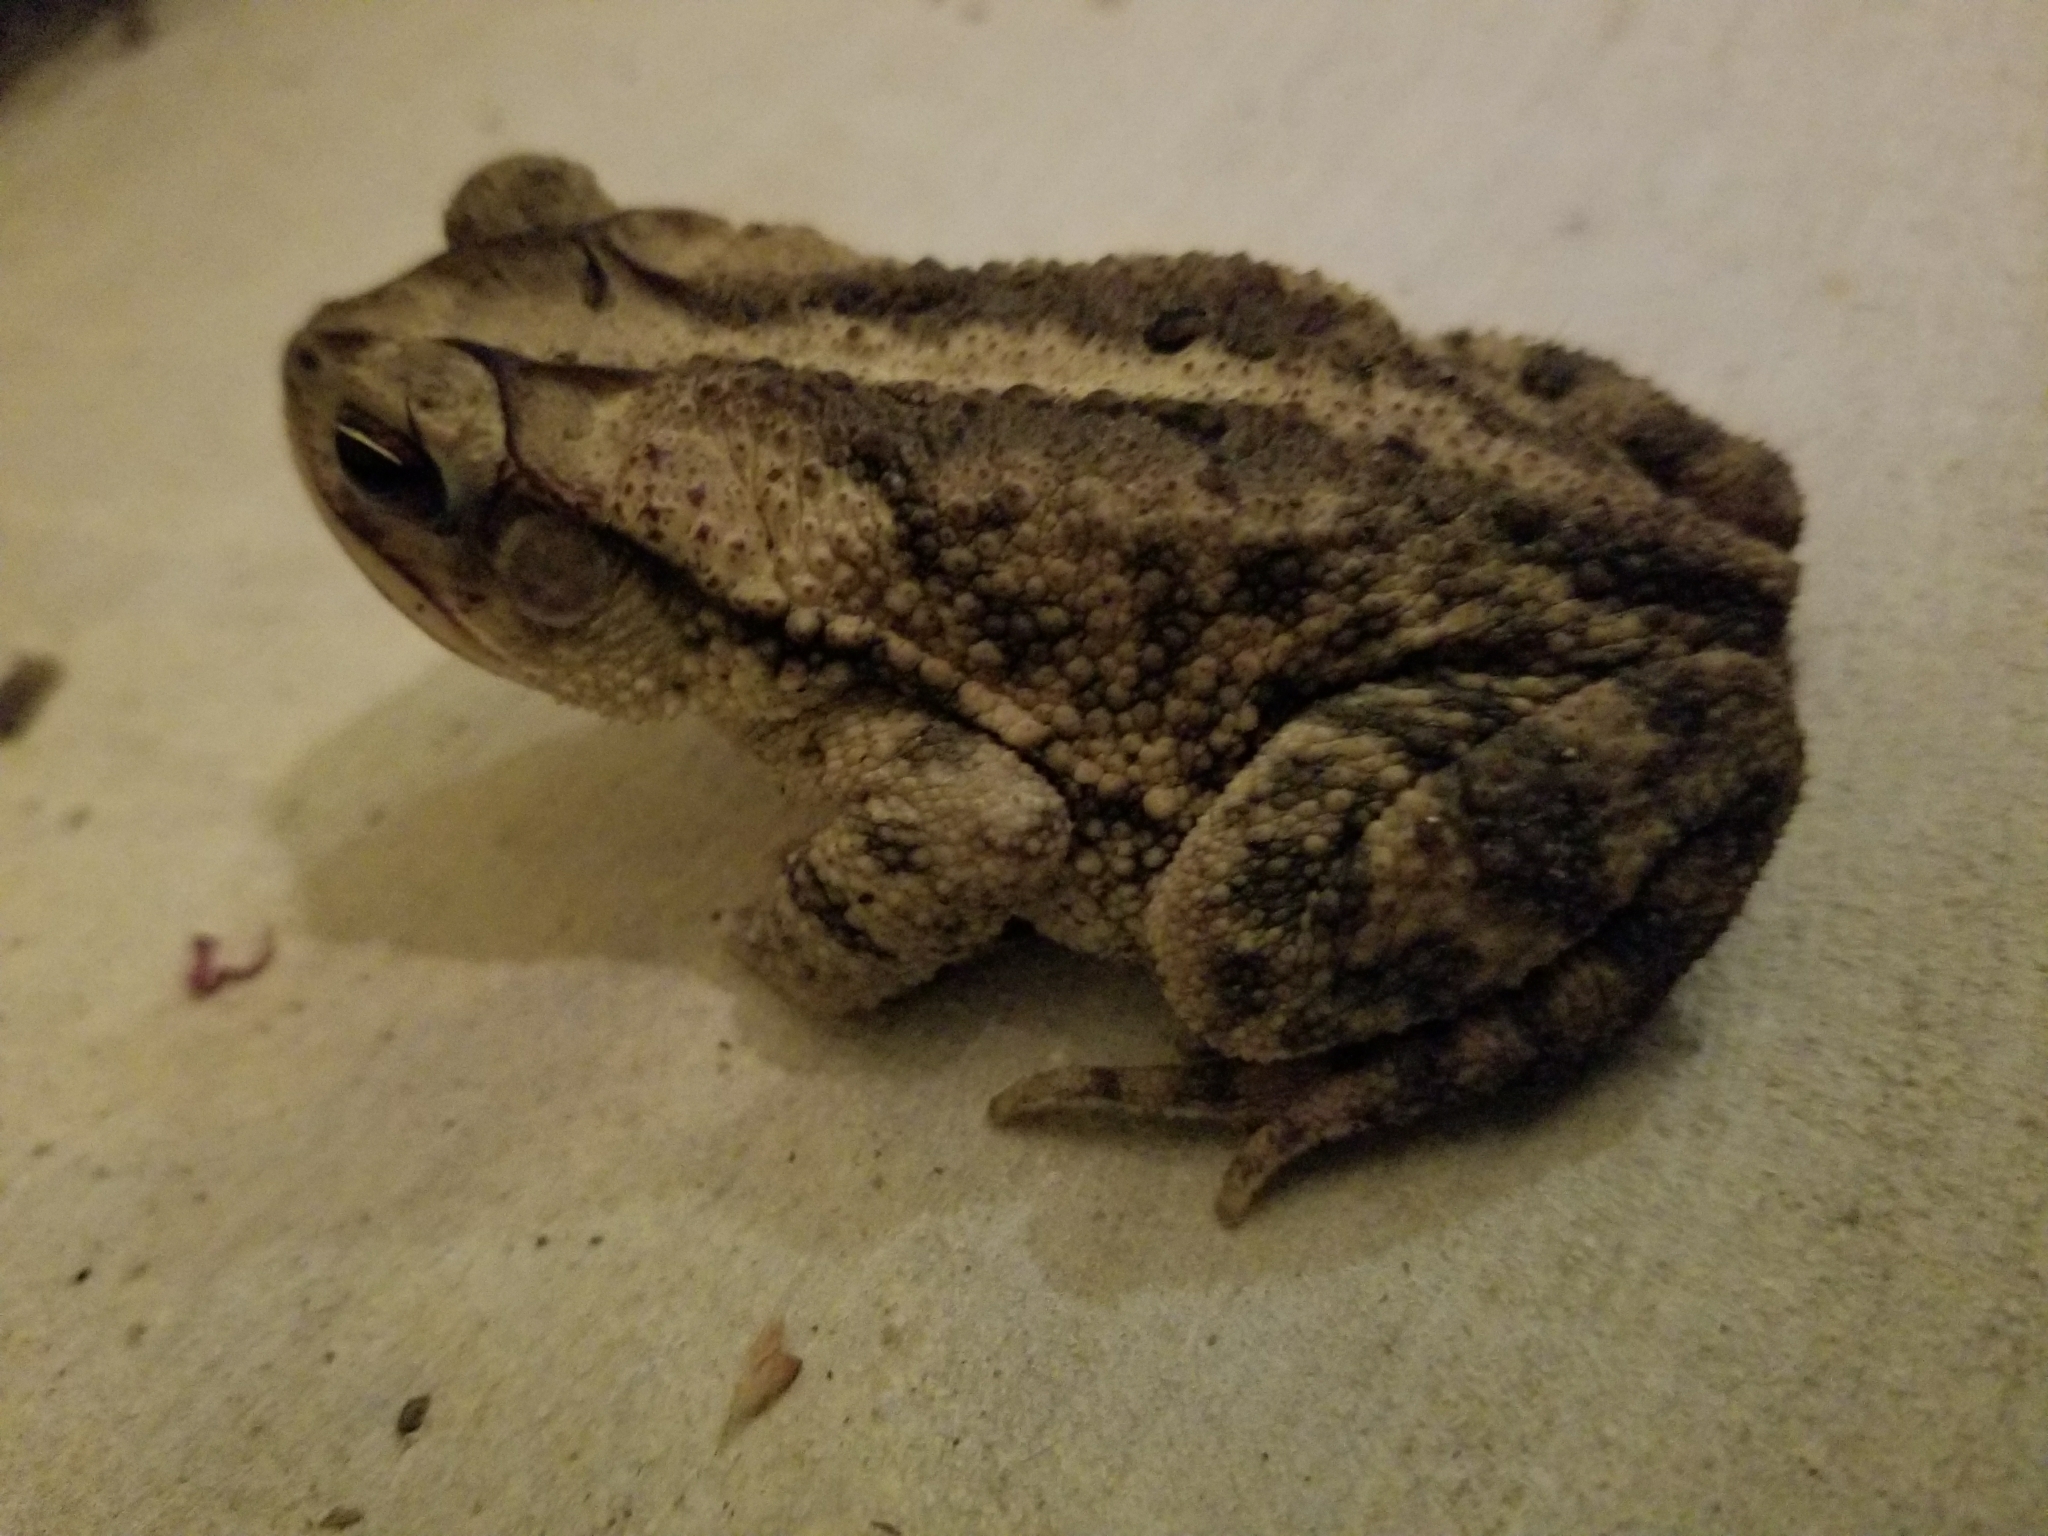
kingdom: Animalia
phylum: Chordata
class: Amphibia
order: Anura
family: Bufonidae
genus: Incilius
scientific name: Incilius nebulifer
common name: Gulf coast toad
